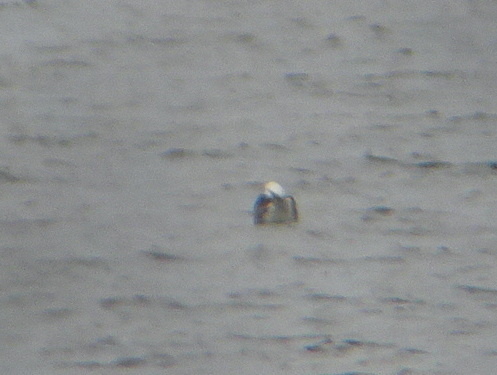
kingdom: Animalia
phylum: Chordata
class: Aves
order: Charadriiformes
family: Laridae
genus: Larus
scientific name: Larus fuscus
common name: Lesser black-backed gull
